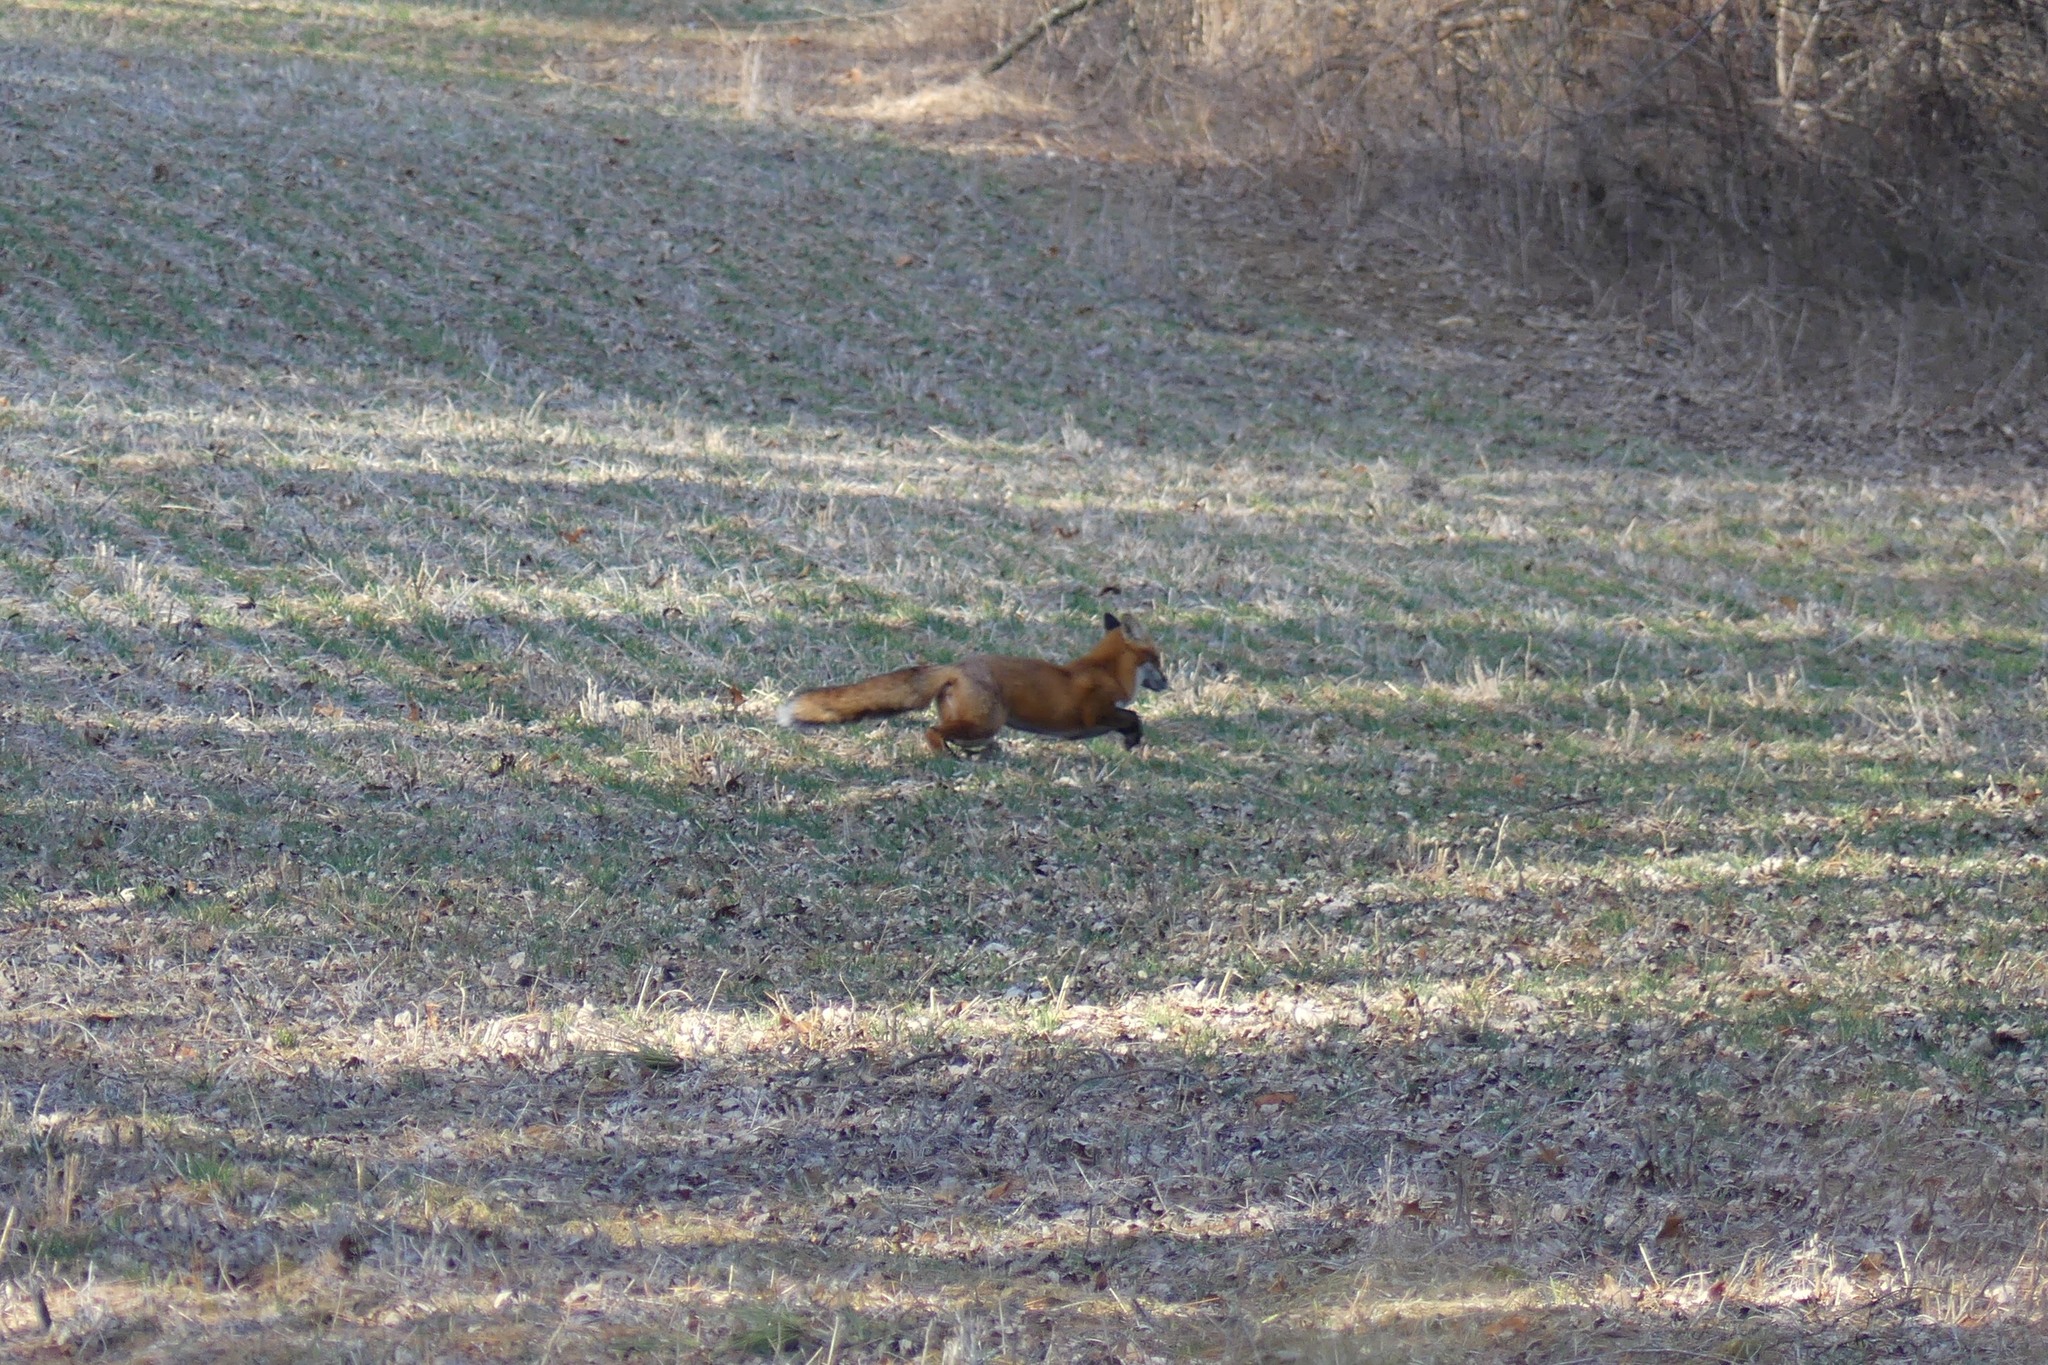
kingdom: Animalia
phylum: Chordata
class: Mammalia
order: Carnivora
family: Canidae
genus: Vulpes
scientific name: Vulpes vulpes
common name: Red fox
